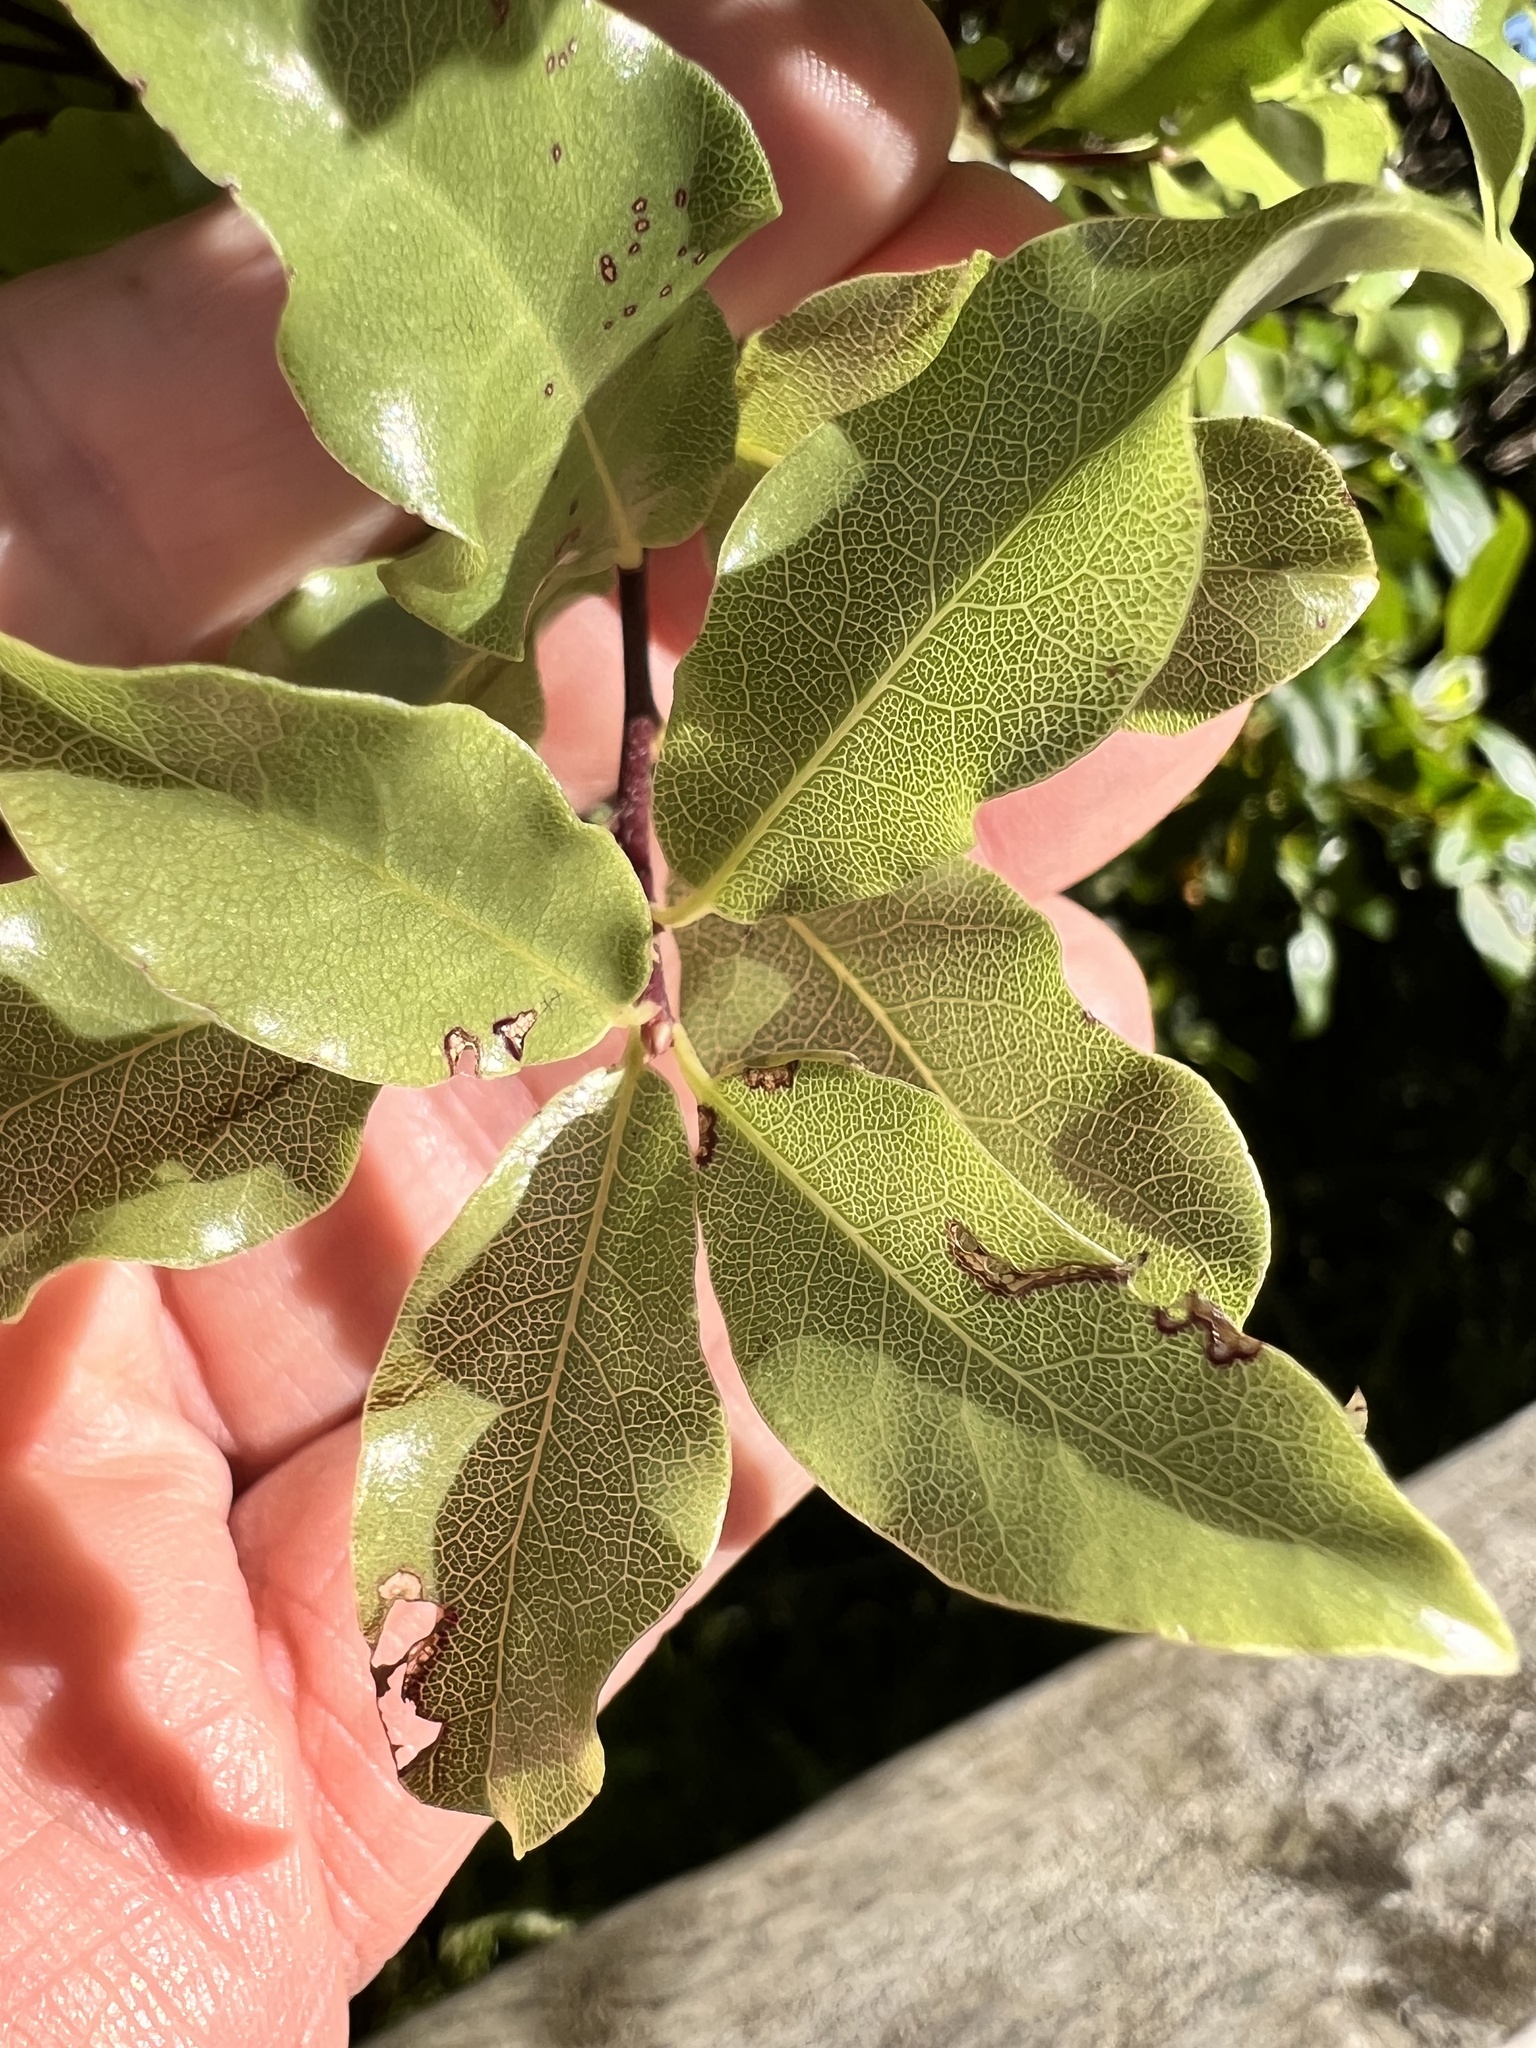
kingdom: Plantae
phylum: Tracheophyta
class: Magnoliopsida
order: Apiales
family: Pittosporaceae
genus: Pittosporum
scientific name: Pittosporum tenuifolium
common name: Kohuhu
